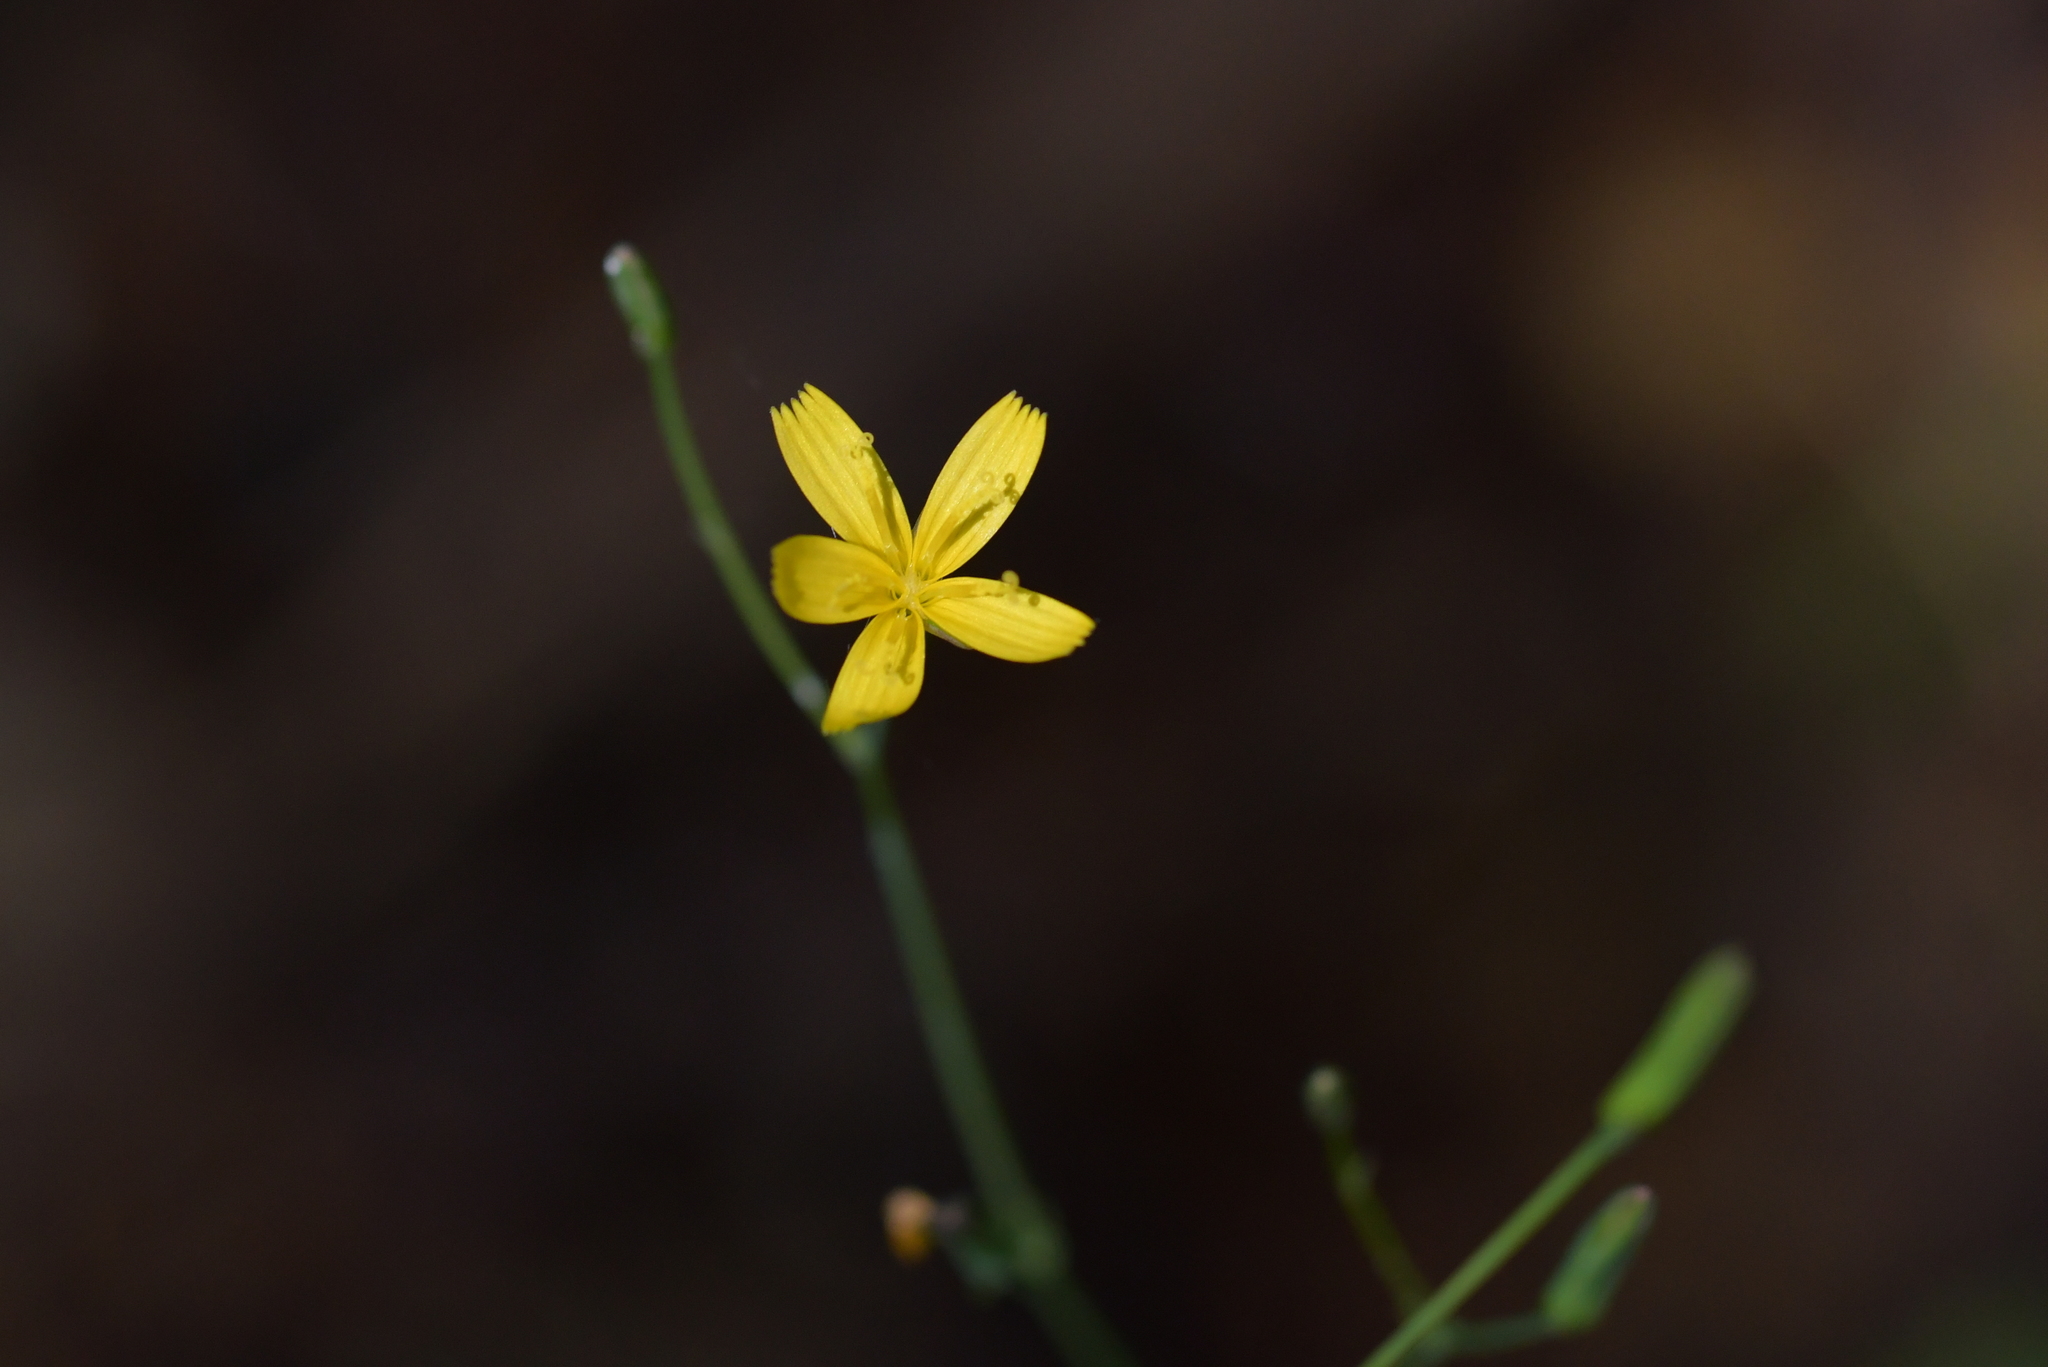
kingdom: Plantae
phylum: Tracheophyta
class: Magnoliopsida
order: Asterales
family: Asteraceae
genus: Mycelis
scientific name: Mycelis muralis
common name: Wall lettuce
